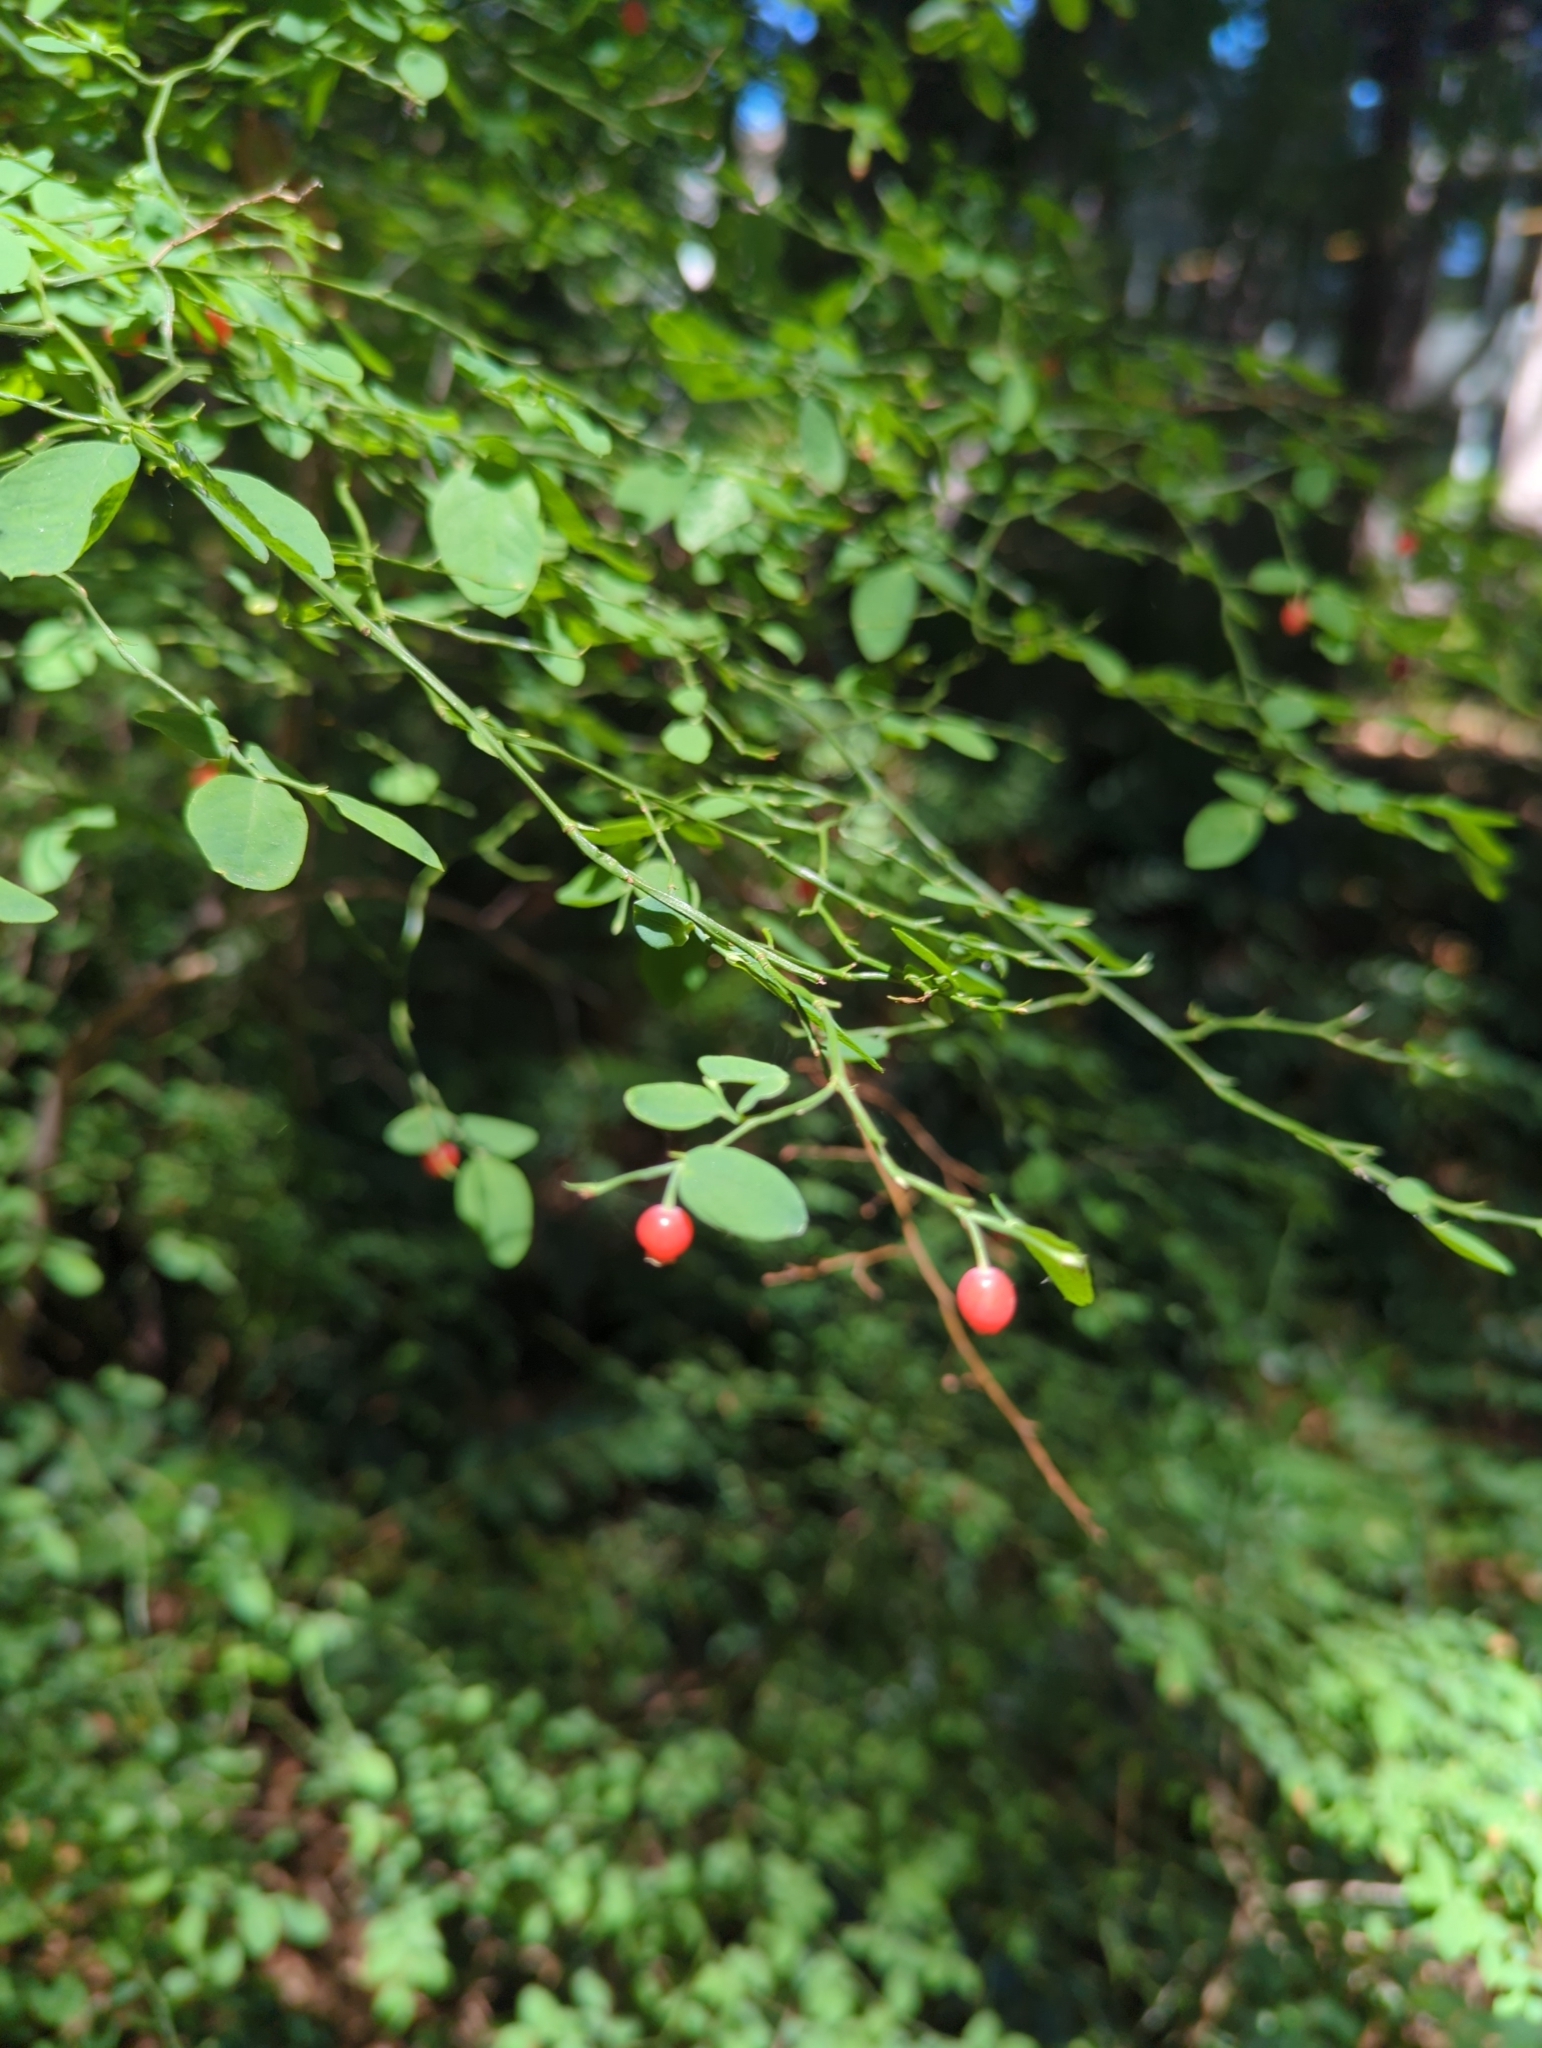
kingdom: Plantae
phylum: Tracheophyta
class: Magnoliopsida
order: Ericales
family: Ericaceae
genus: Vaccinium
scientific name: Vaccinium parvifolium
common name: Red-huckleberry
